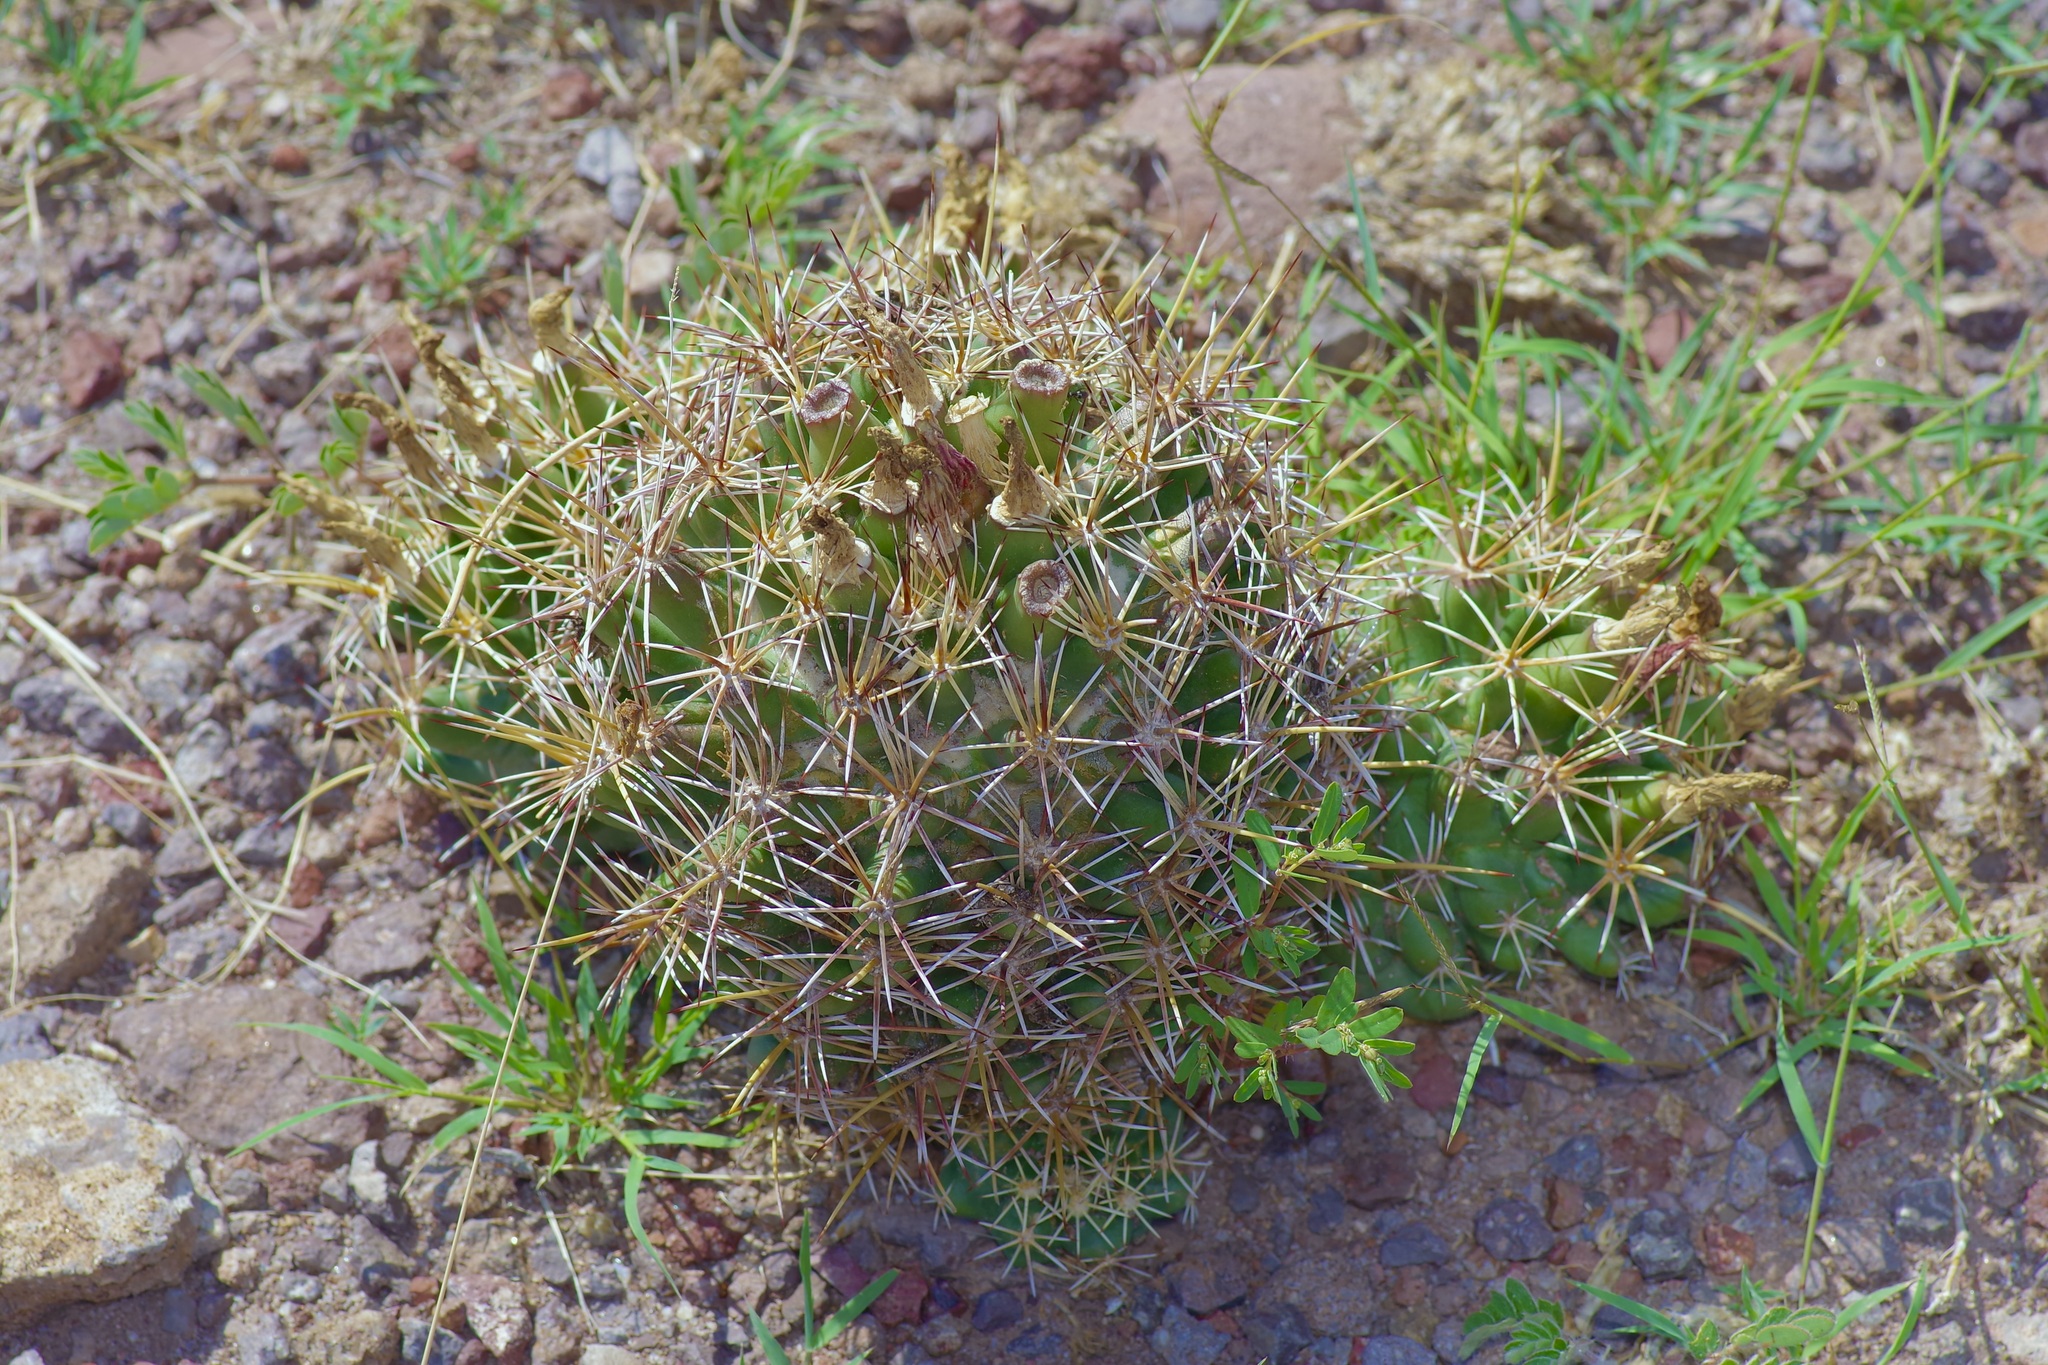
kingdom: Plantae
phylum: Tracheophyta
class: Magnoliopsida
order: Caryophyllales
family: Cactaceae
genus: Coryphantha
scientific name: Coryphantha robustispina
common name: Pima pineapple cactus
